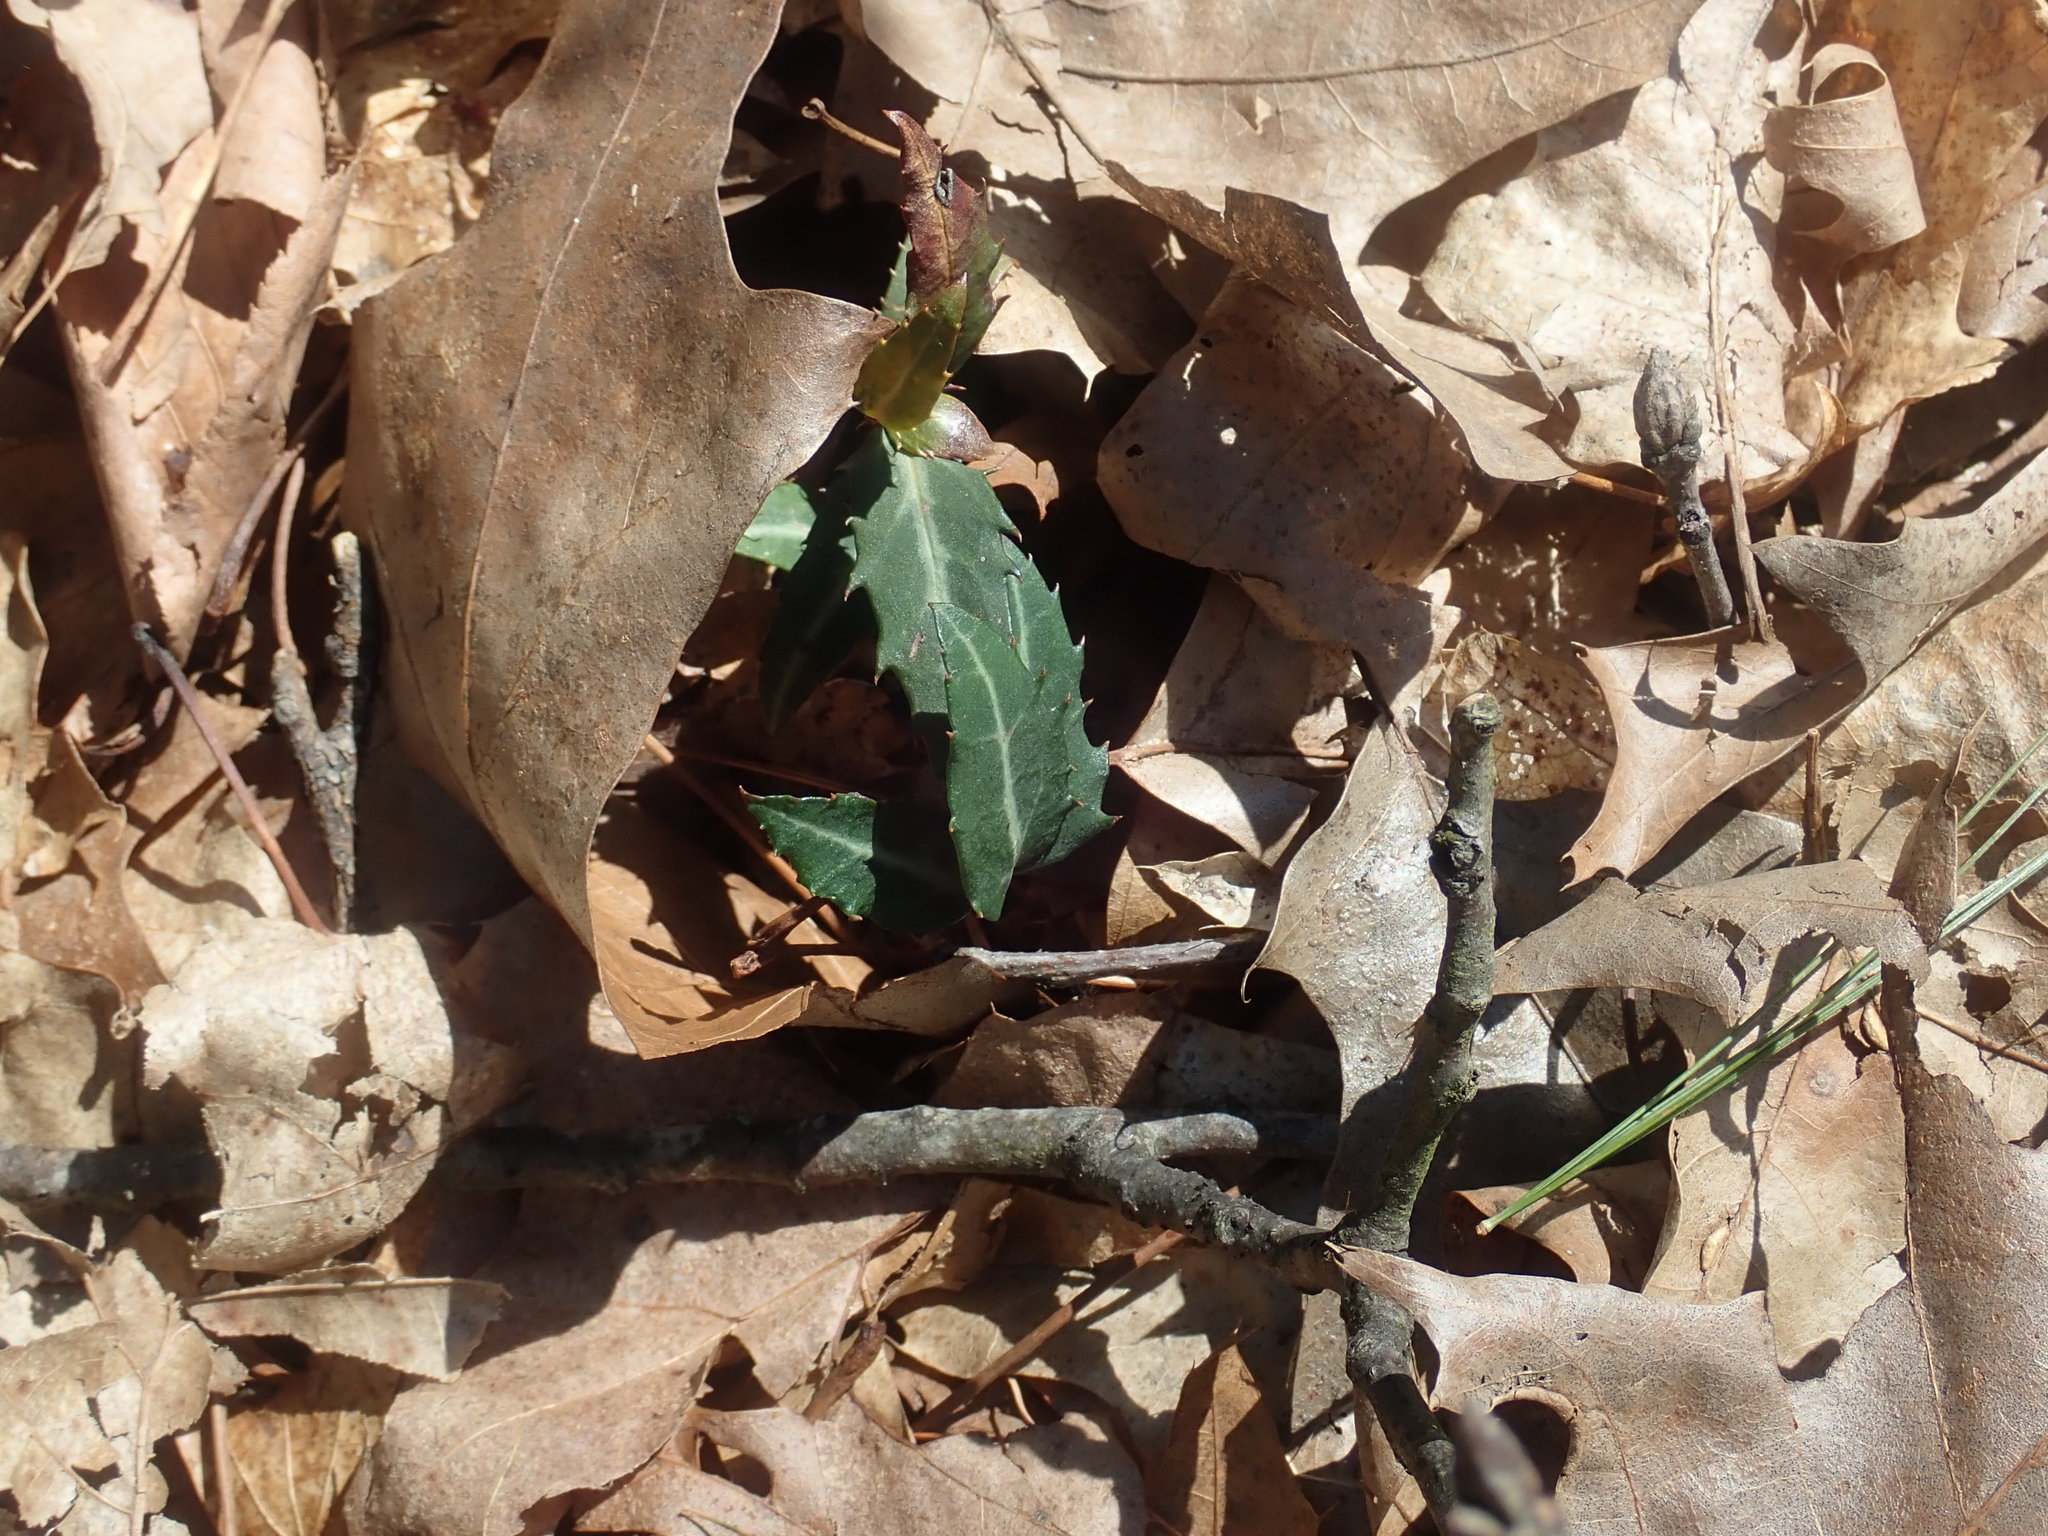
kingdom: Plantae
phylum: Tracheophyta
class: Magnoliopsida
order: Ericales
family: Ericaceae
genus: Chimaphila
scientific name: Chimaphila maculata
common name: Spotted pipsissewa
